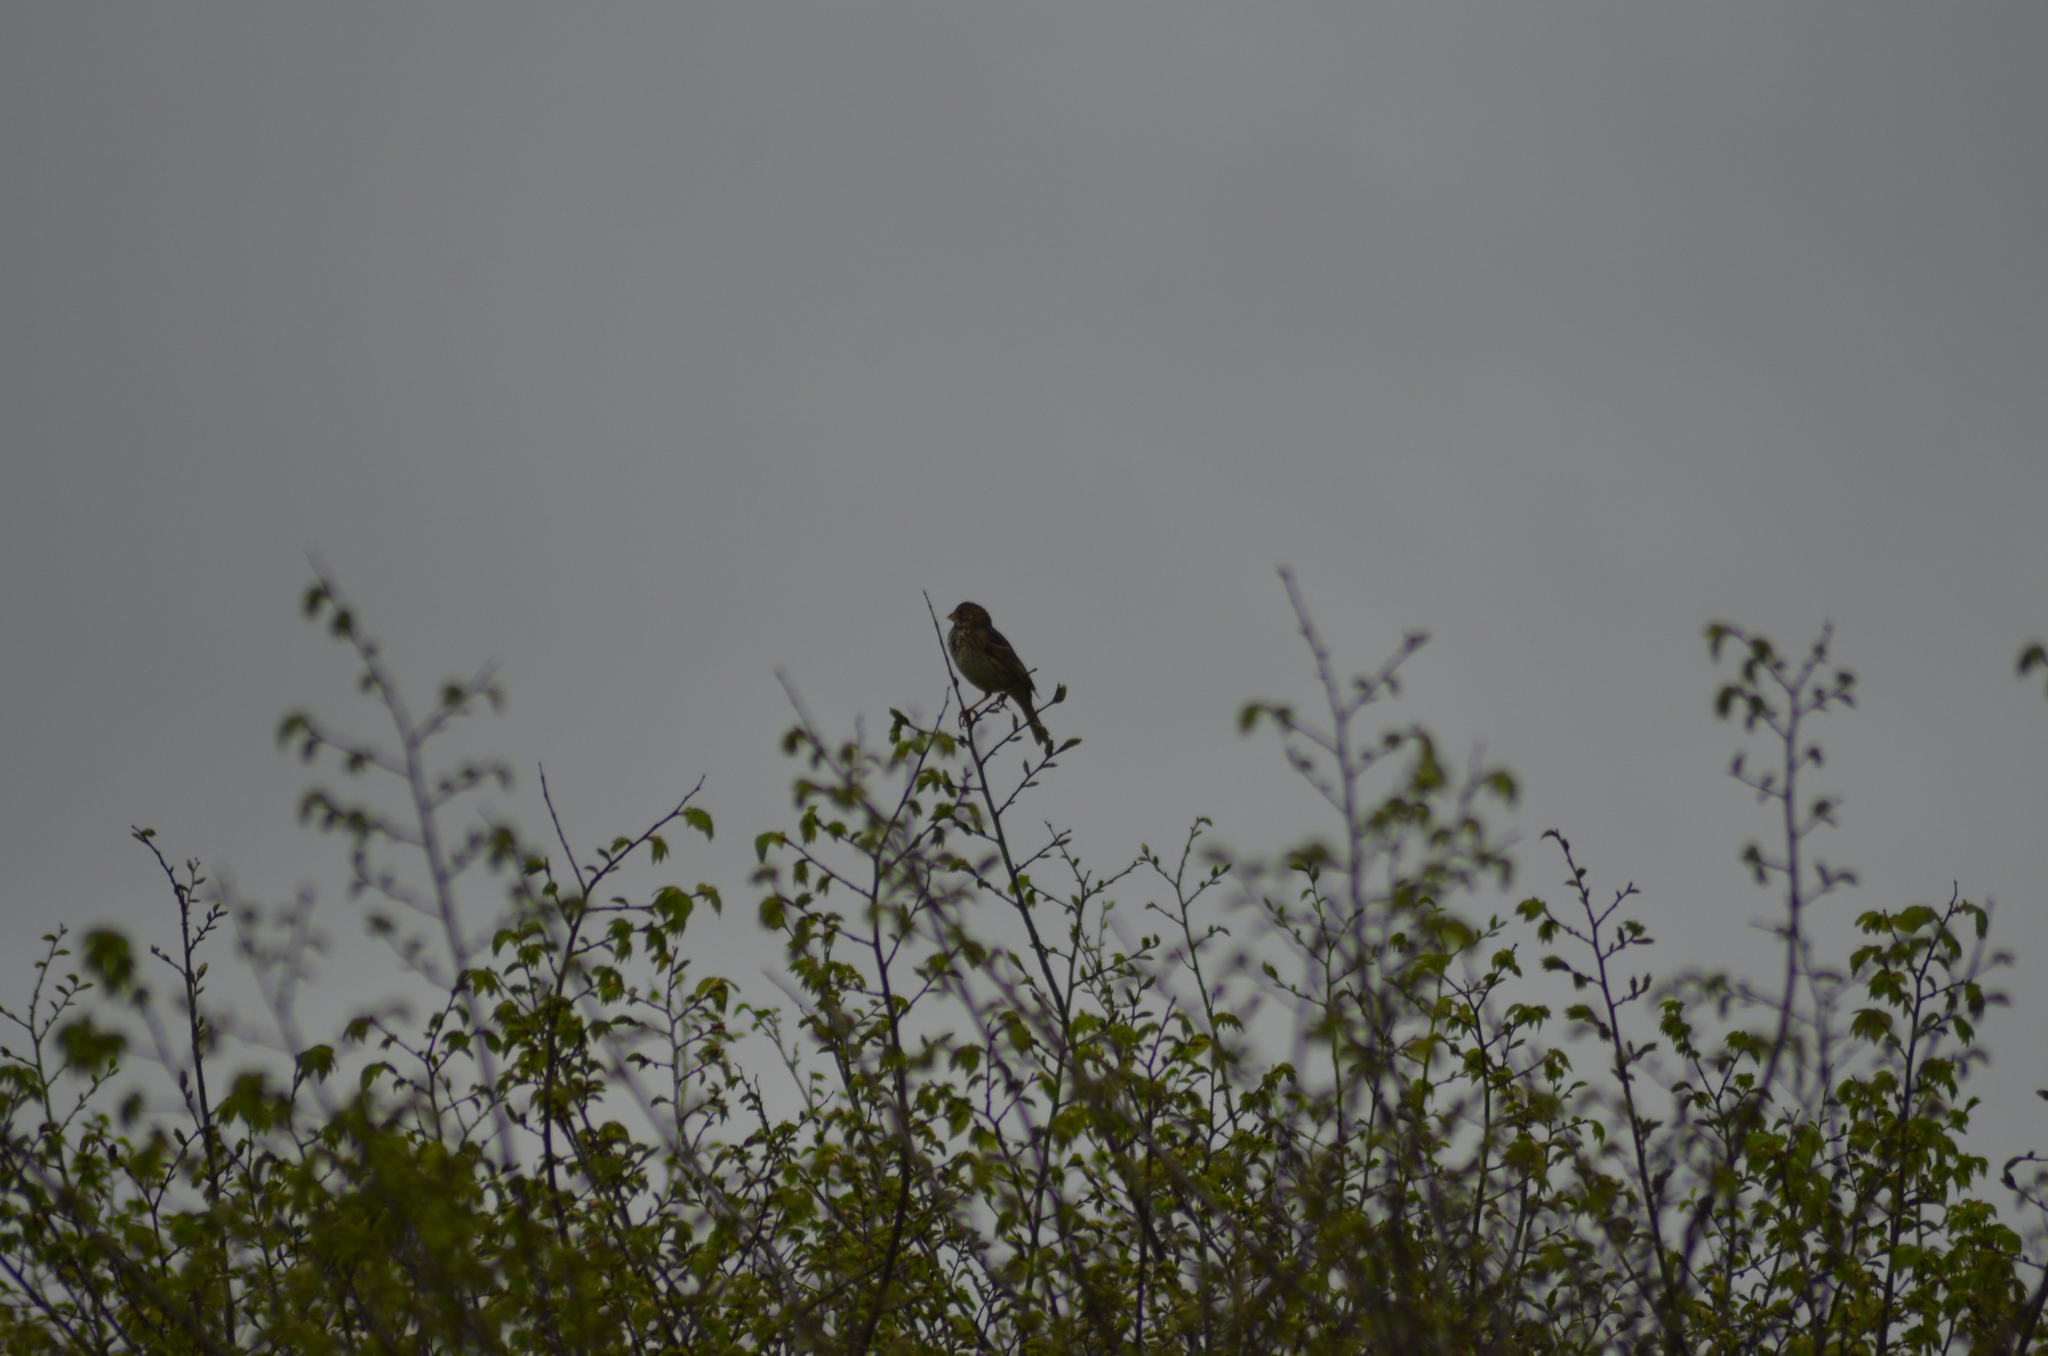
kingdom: Animalia
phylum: Chordata
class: Aves
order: Passeriformes
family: Emberizidae
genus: Emberiza
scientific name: Emberiza calandra
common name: Corn bunting
